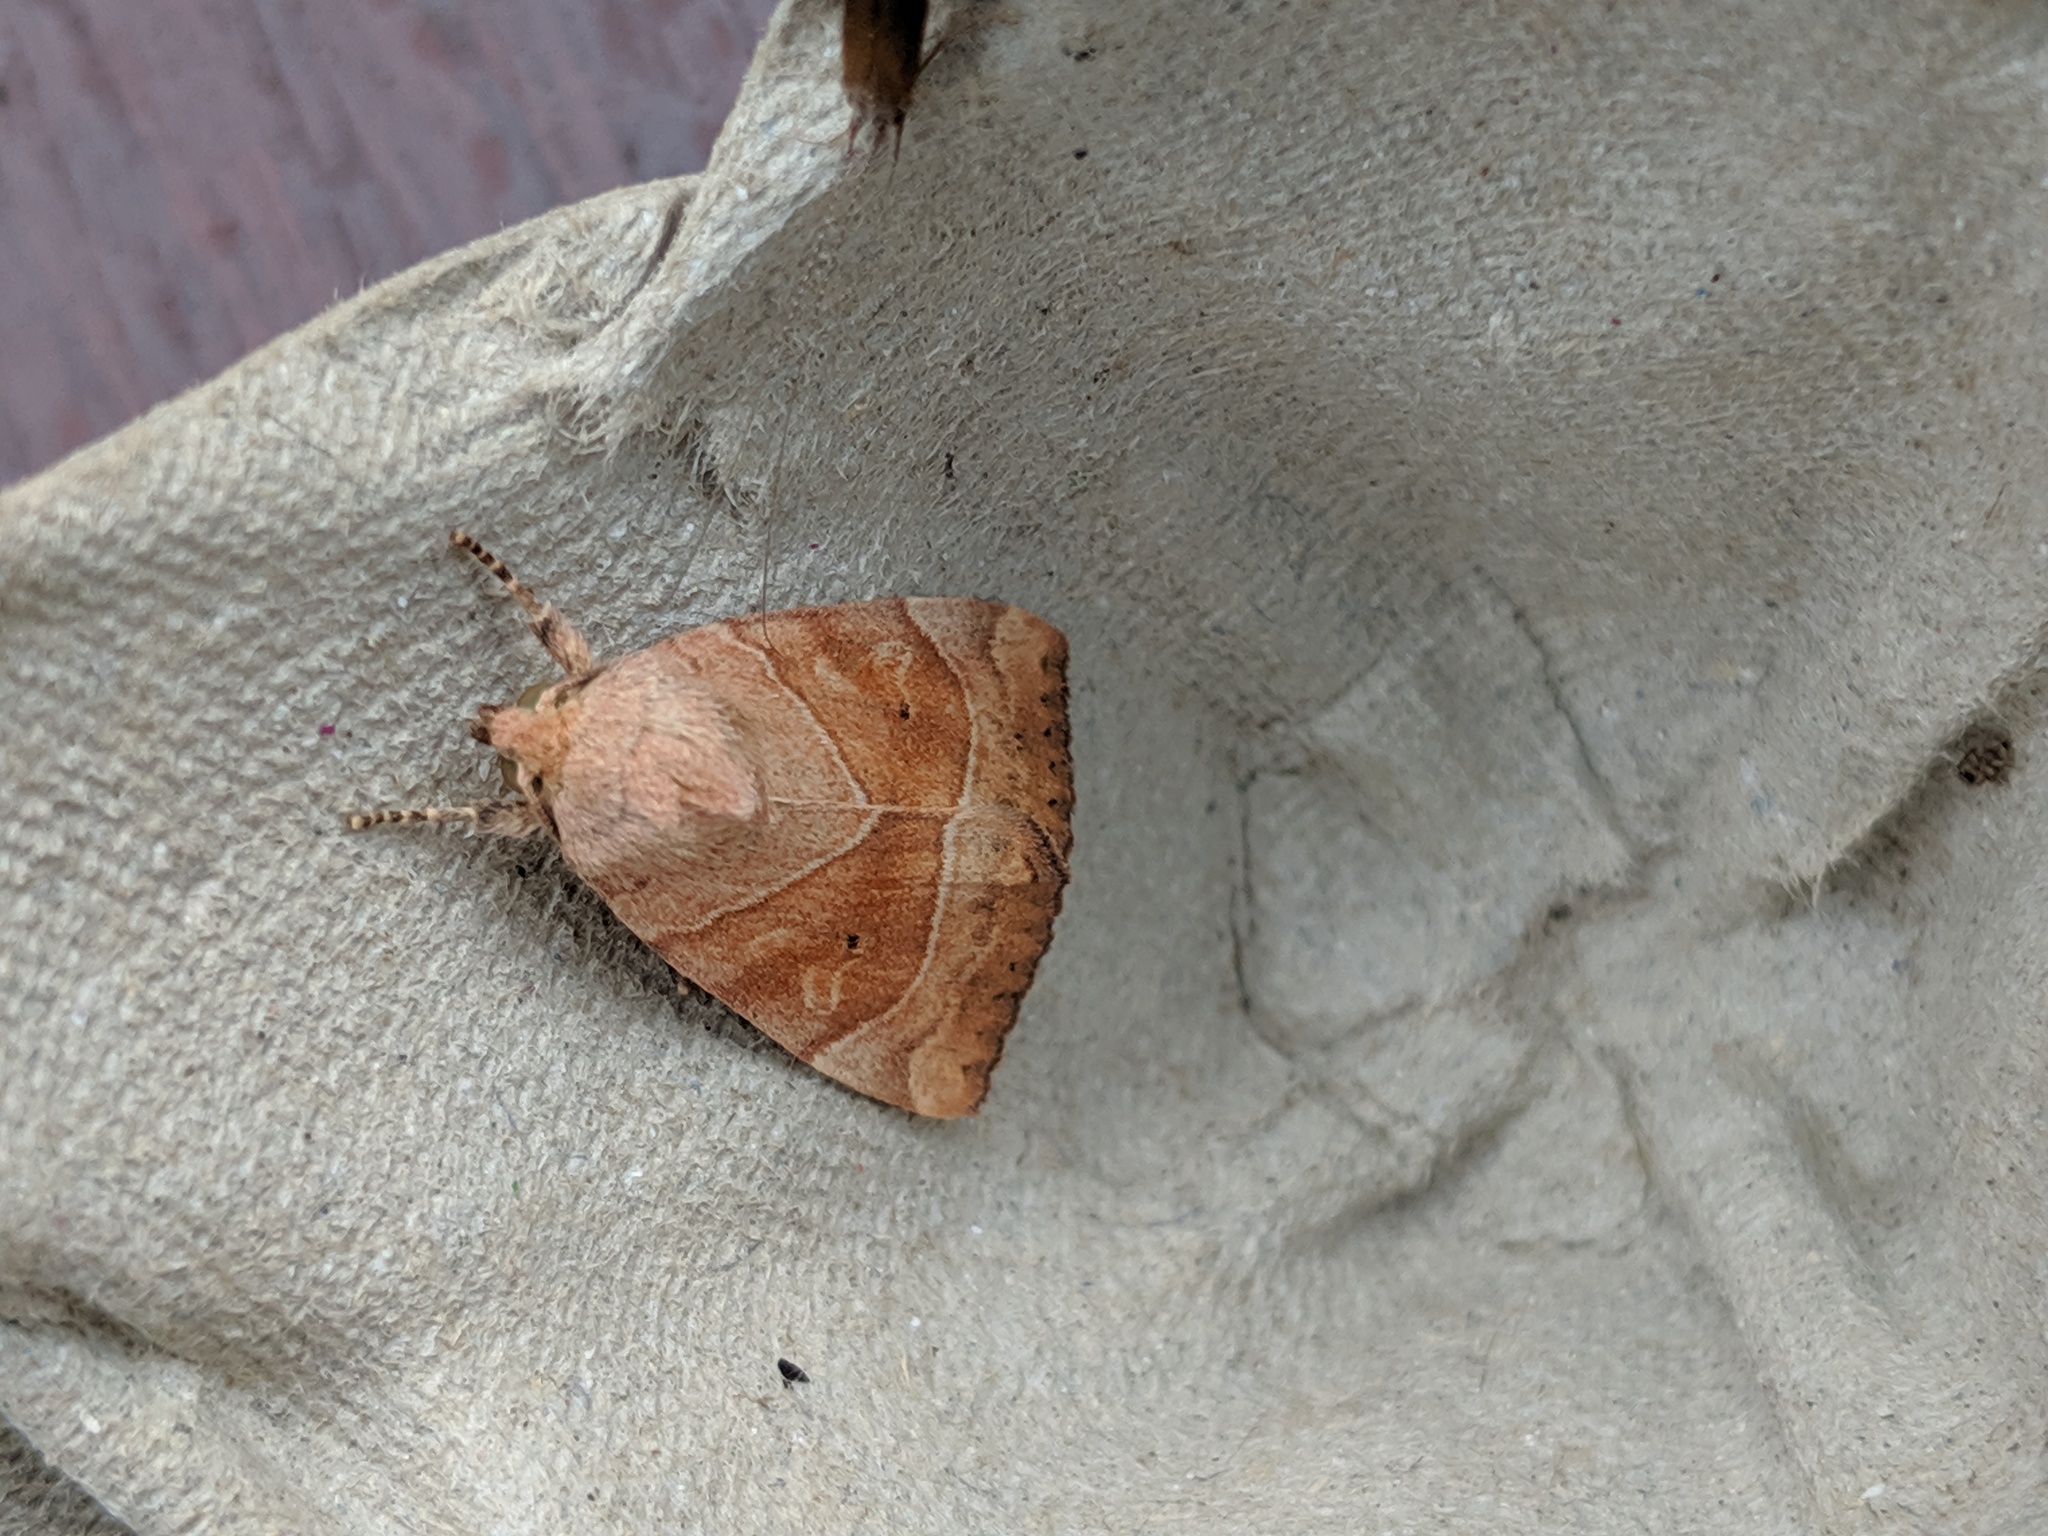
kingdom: Animalia
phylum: Arthropoda
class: Insecta
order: Lepidoptera
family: Noctuidae
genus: Cosmia
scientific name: Cosmia trapezina
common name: Dun-bar
